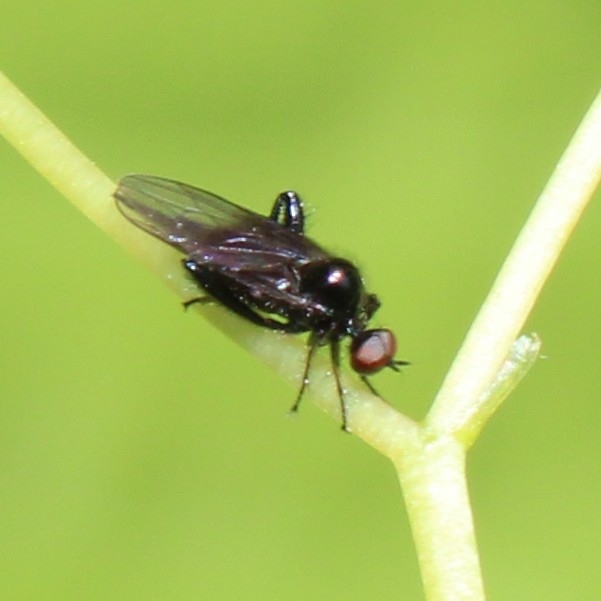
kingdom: Animalia
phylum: Arthropoda
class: Insecta
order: Diptera
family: Hybotidae
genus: Euhybus
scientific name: Euhybus purpureus
